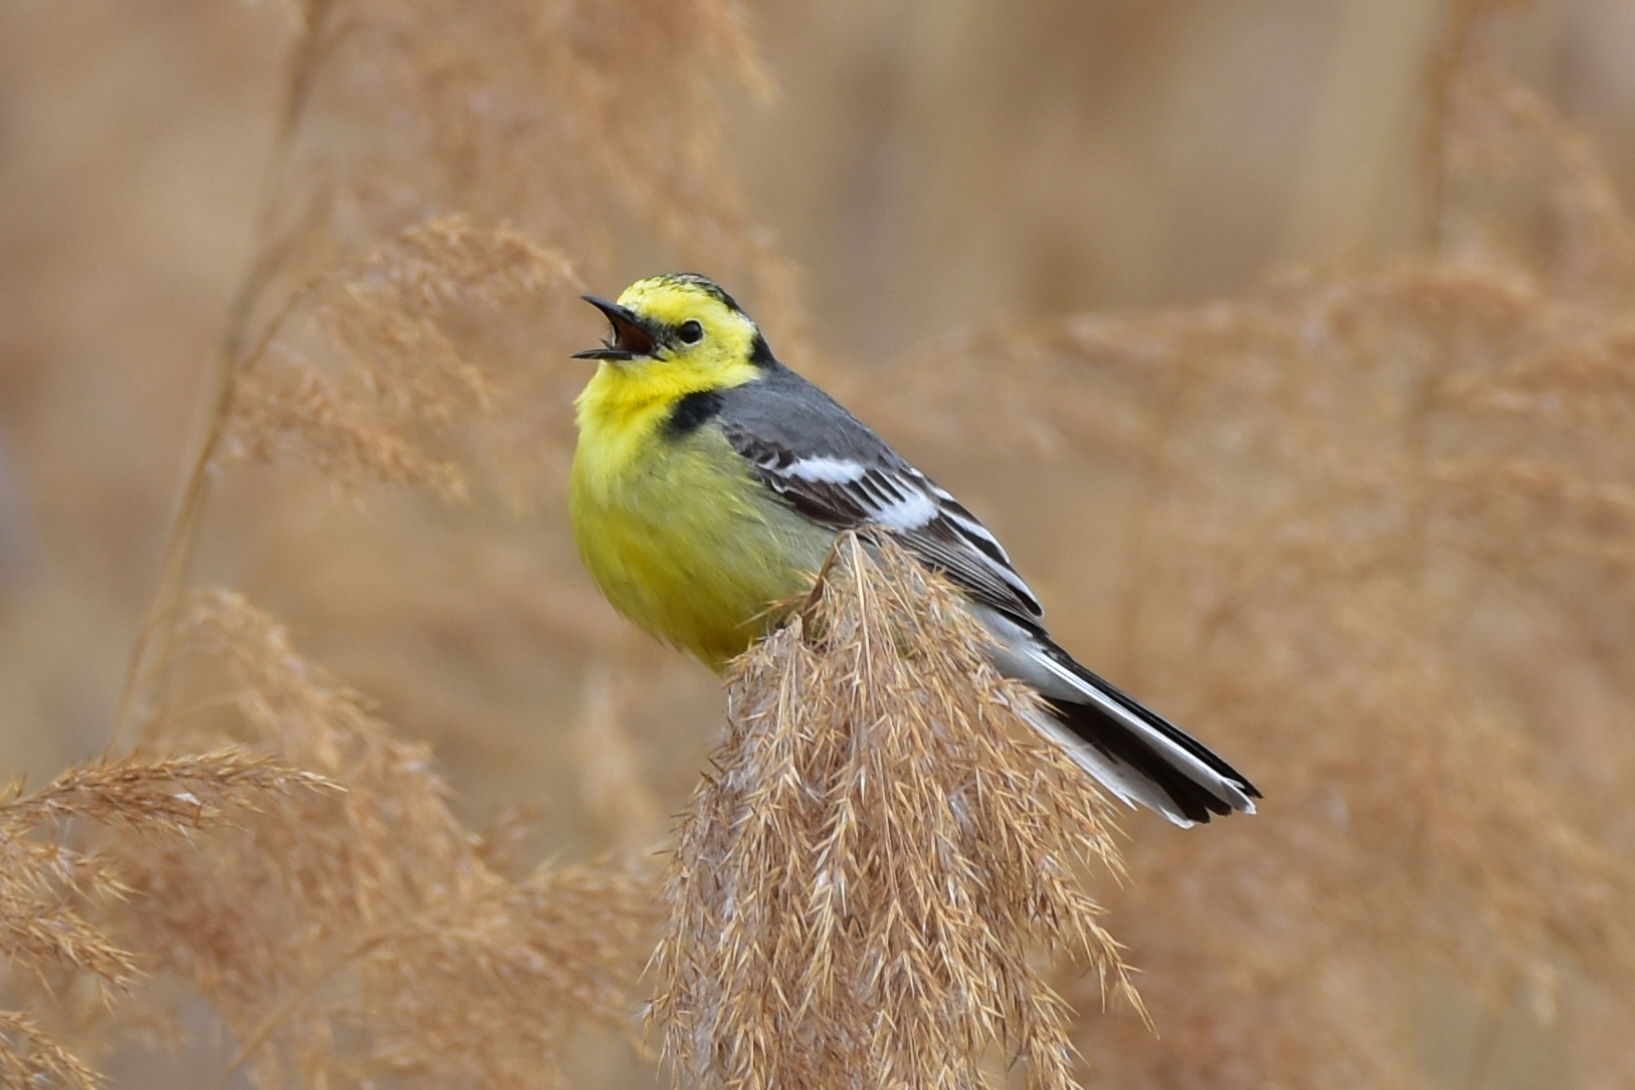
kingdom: Animalia
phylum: Chordata
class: Aves
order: Passeriformes
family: Motacillidae
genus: Motacilla
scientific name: Motacilla citreola
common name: Citrine wagtail
